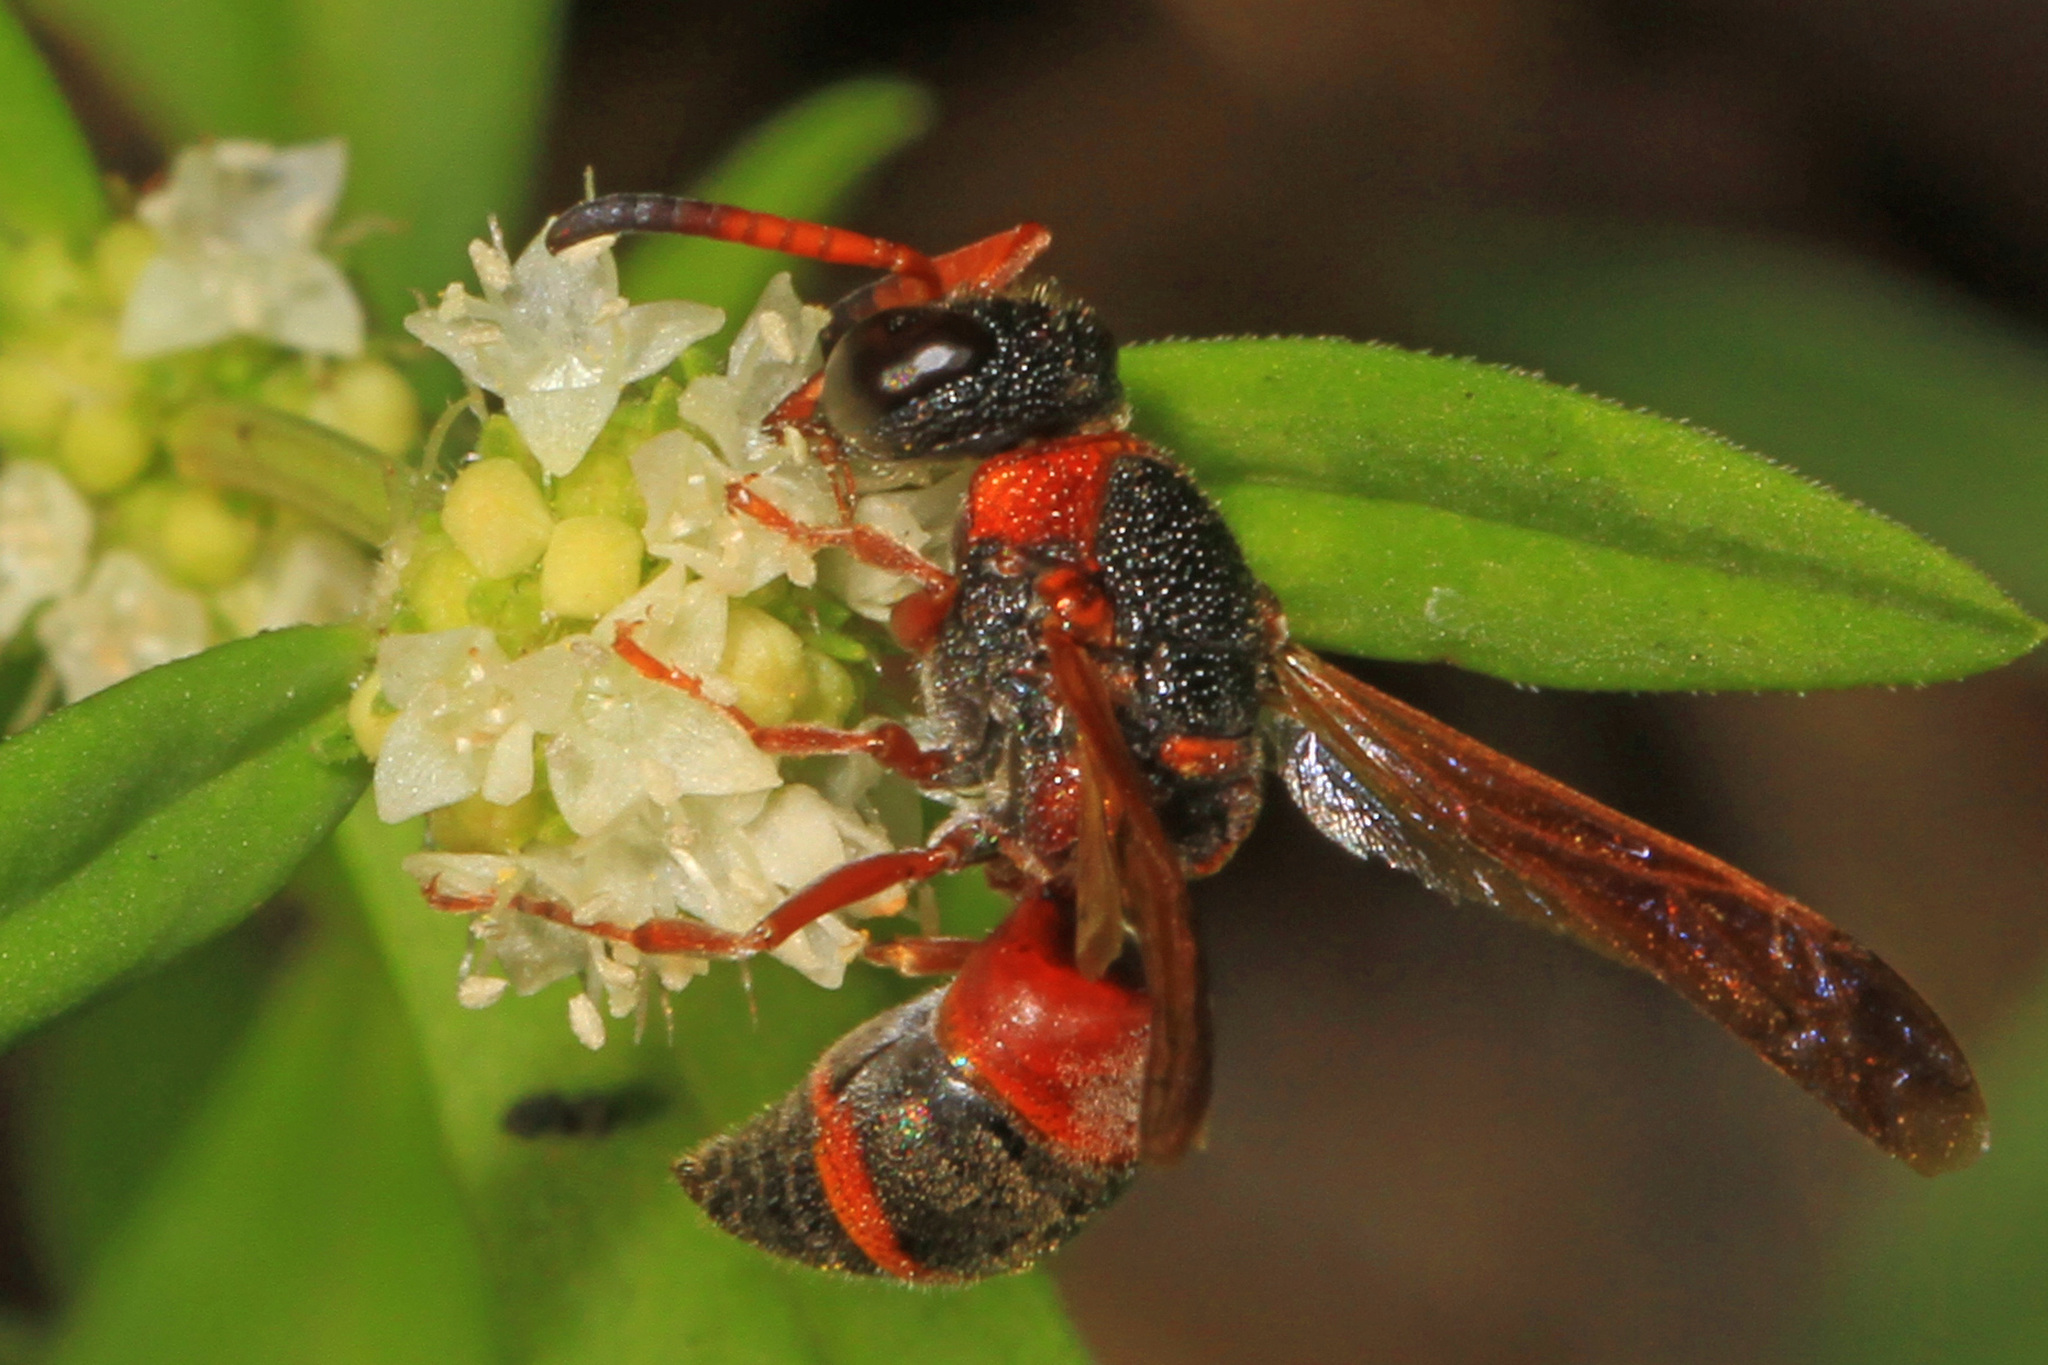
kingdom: Animalia
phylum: Arthropoda
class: Insecta
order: Hymenoptera
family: Eumenidae
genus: Pachodynerus
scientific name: Pachodynerus erynnis
